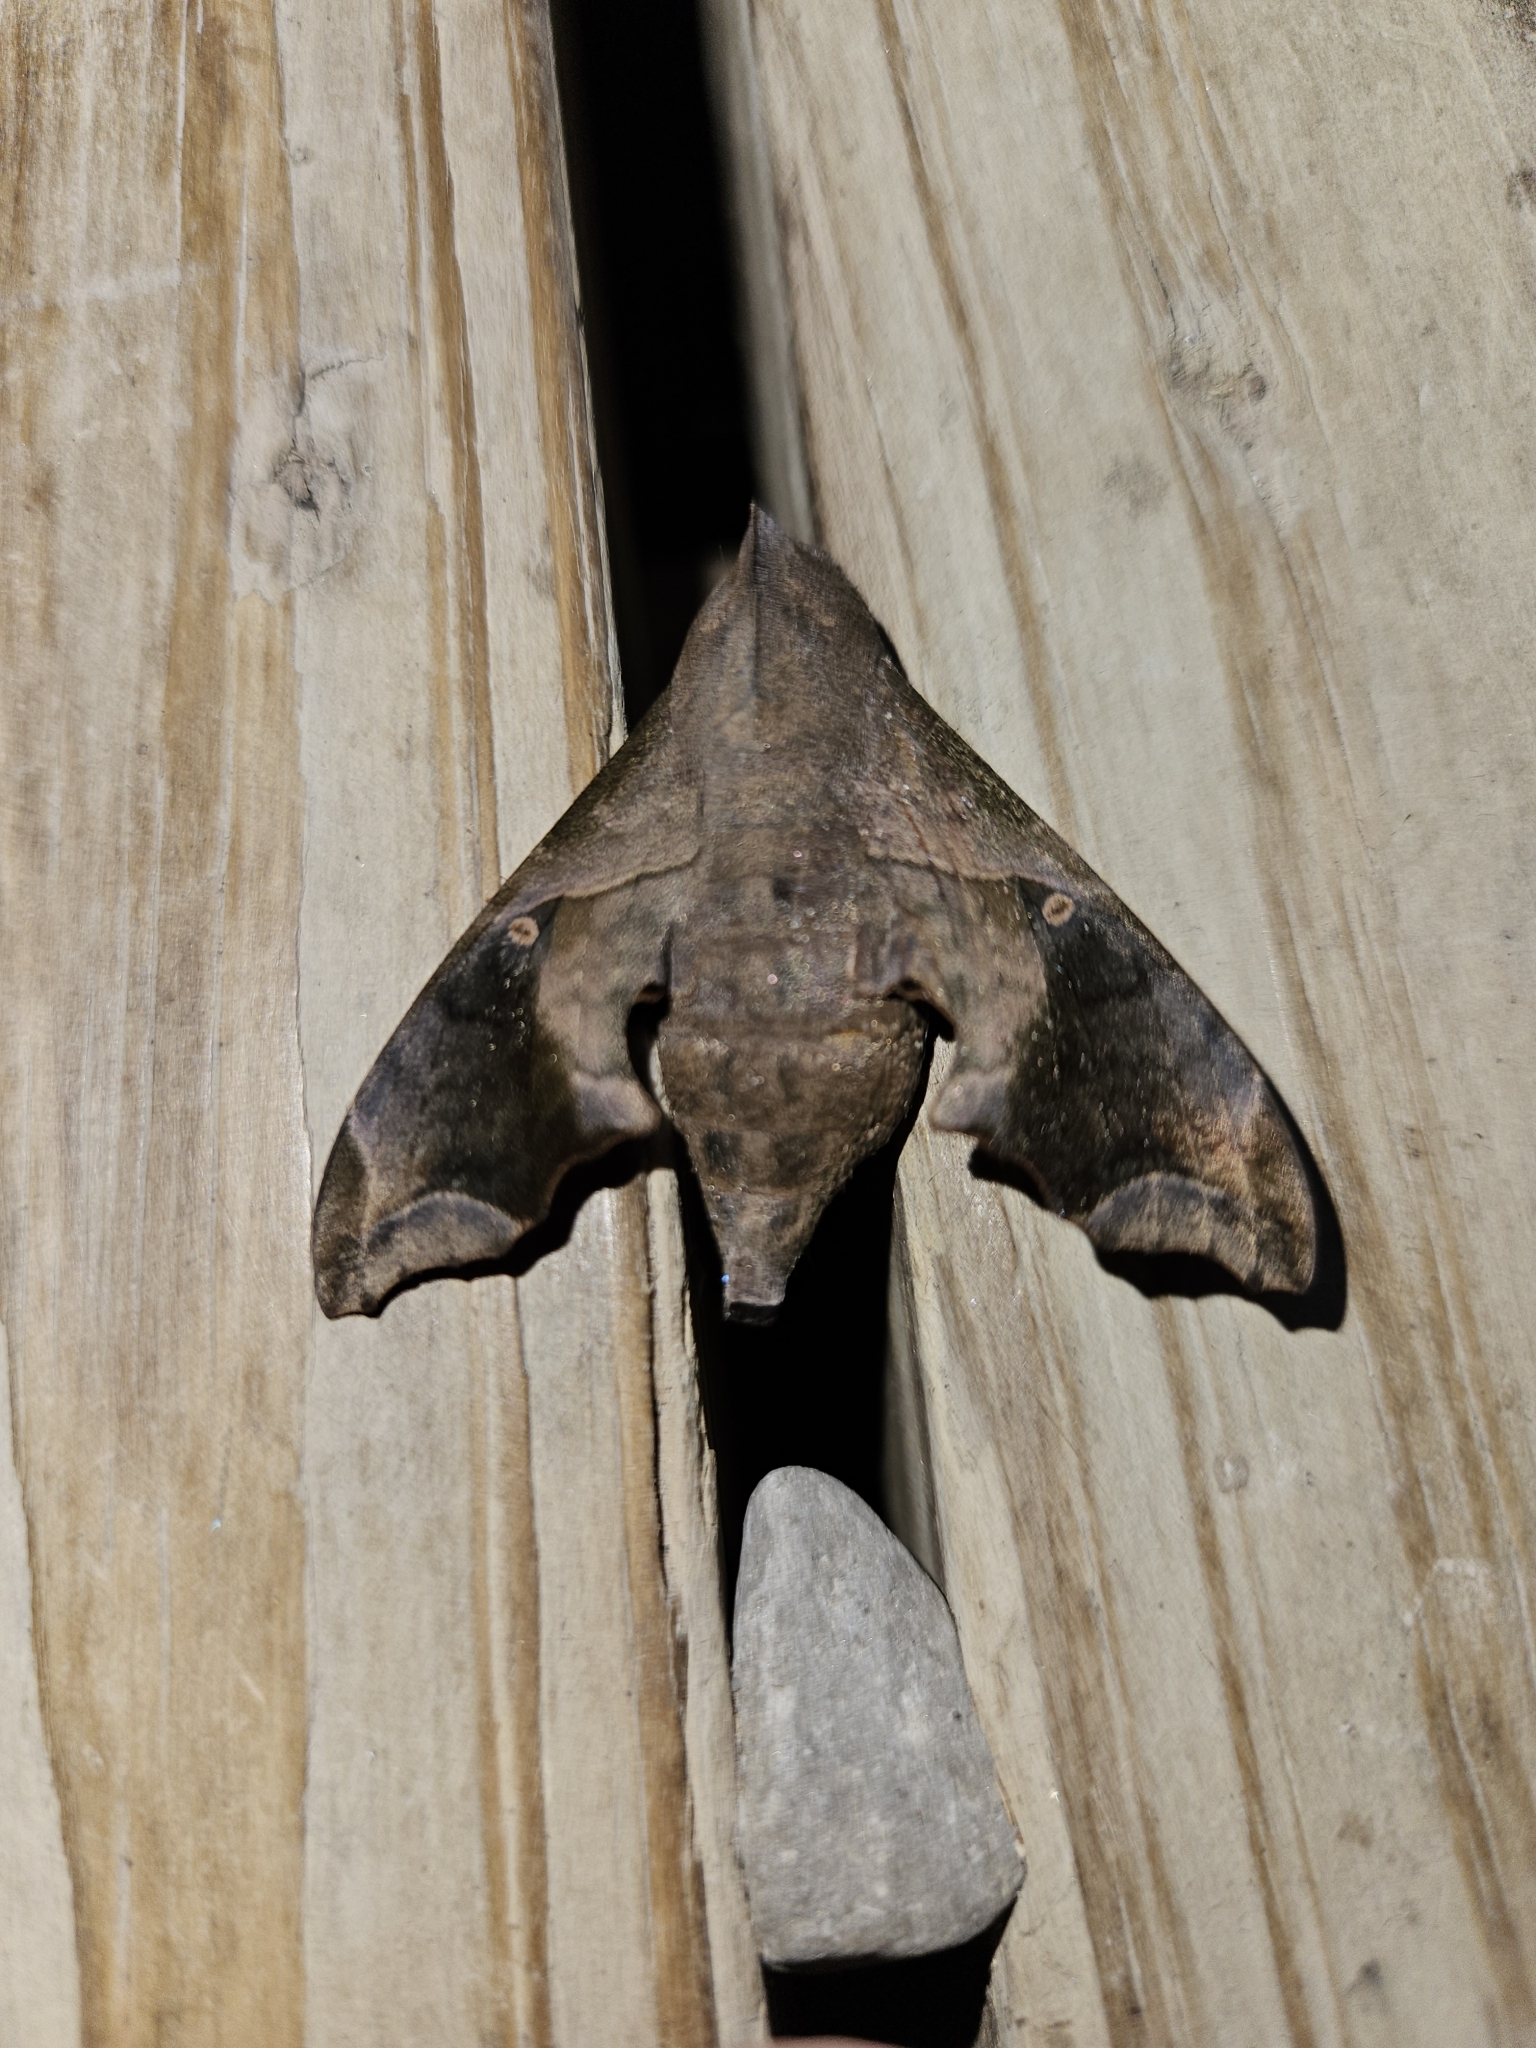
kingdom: Animalia
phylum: Arthropoda
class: Insecta
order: Lepidoptera
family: Sphingidae
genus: Enyo
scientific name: Enyo lugubris
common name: Mournful sphinx
